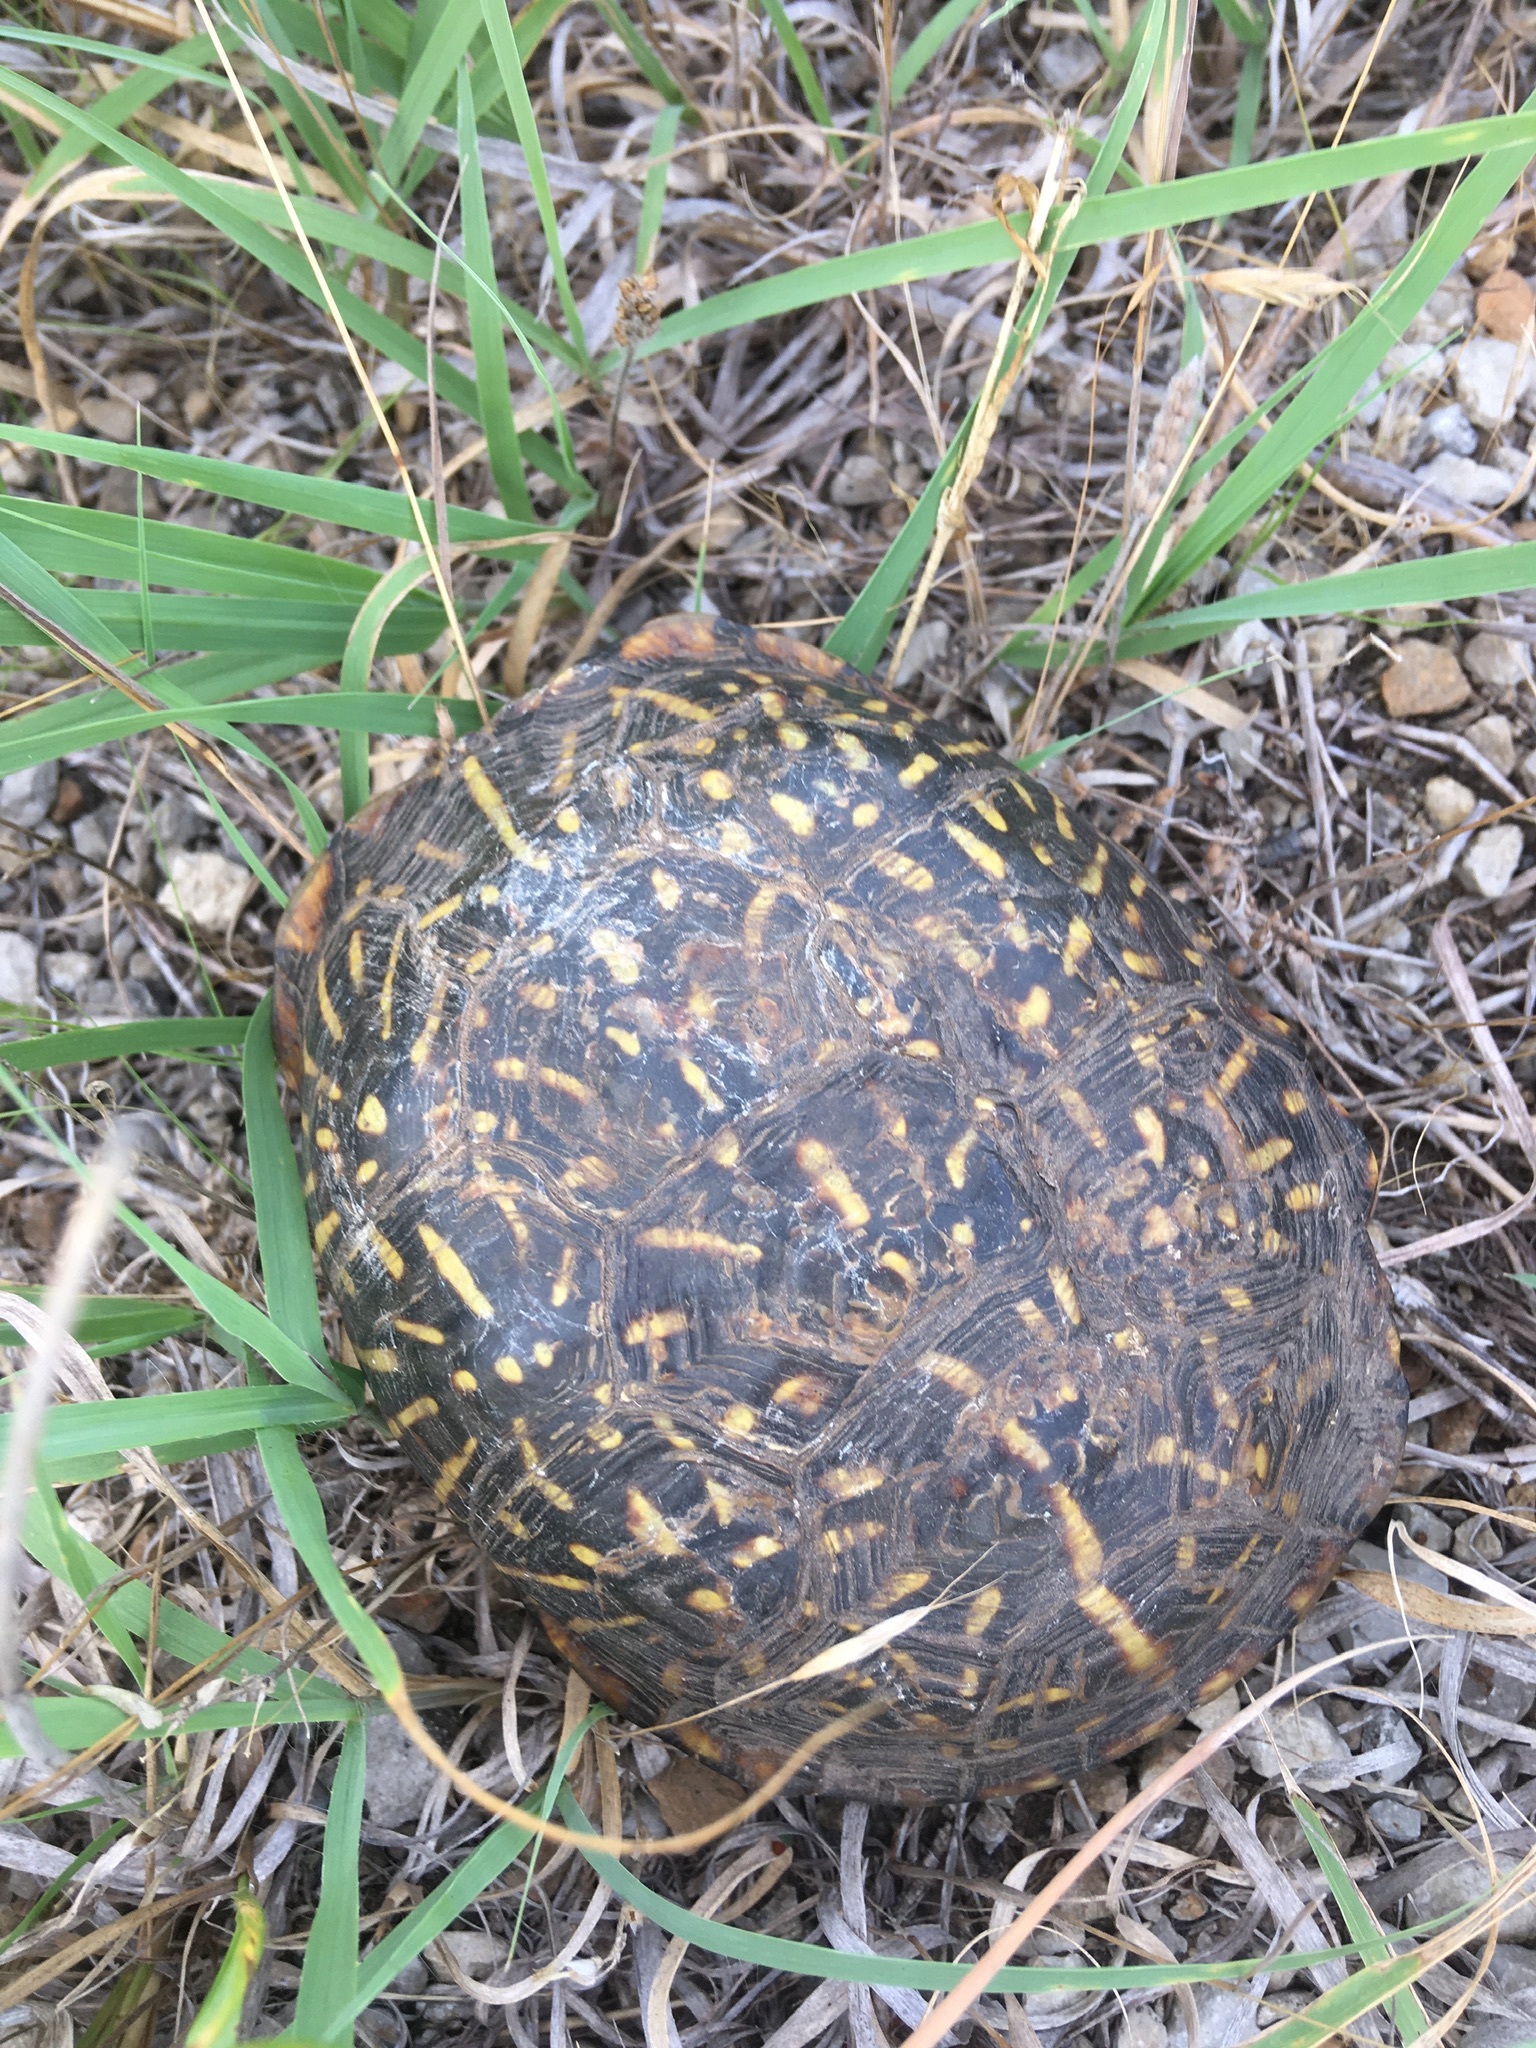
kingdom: Animalia
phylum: Chordata
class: Testudines
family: Emydidae
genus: Terrapene
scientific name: Terrapene ornata
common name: Western box turtle
